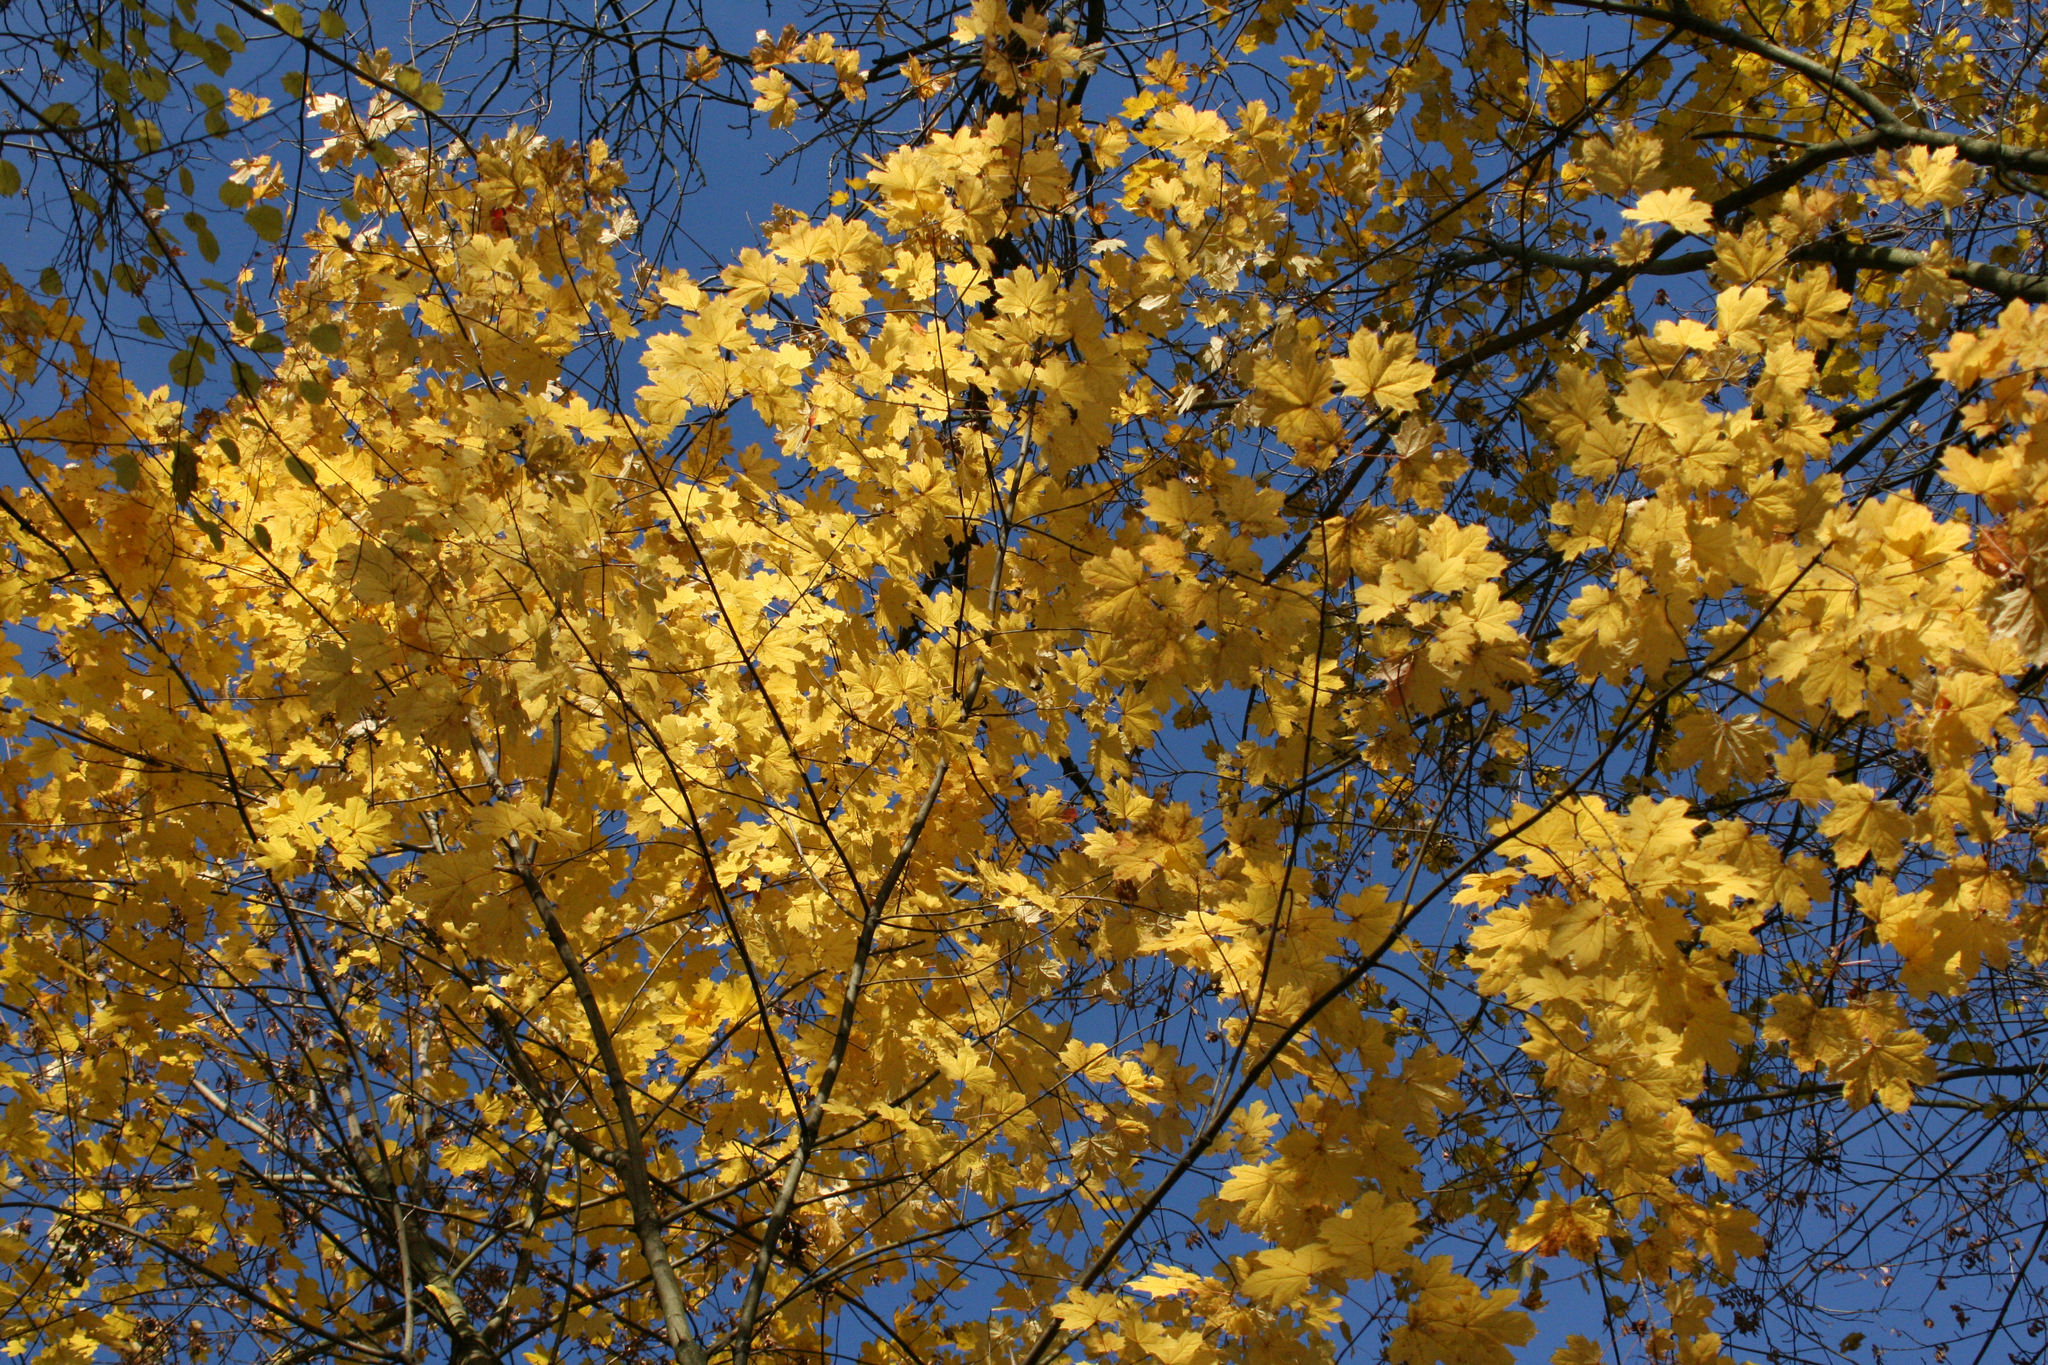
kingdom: Plantae
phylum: Tracheophyta
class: Magnoliopsida
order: Sapindales
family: Sapindaceae
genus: Acer
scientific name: Acer platanoides
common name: Norway maple
